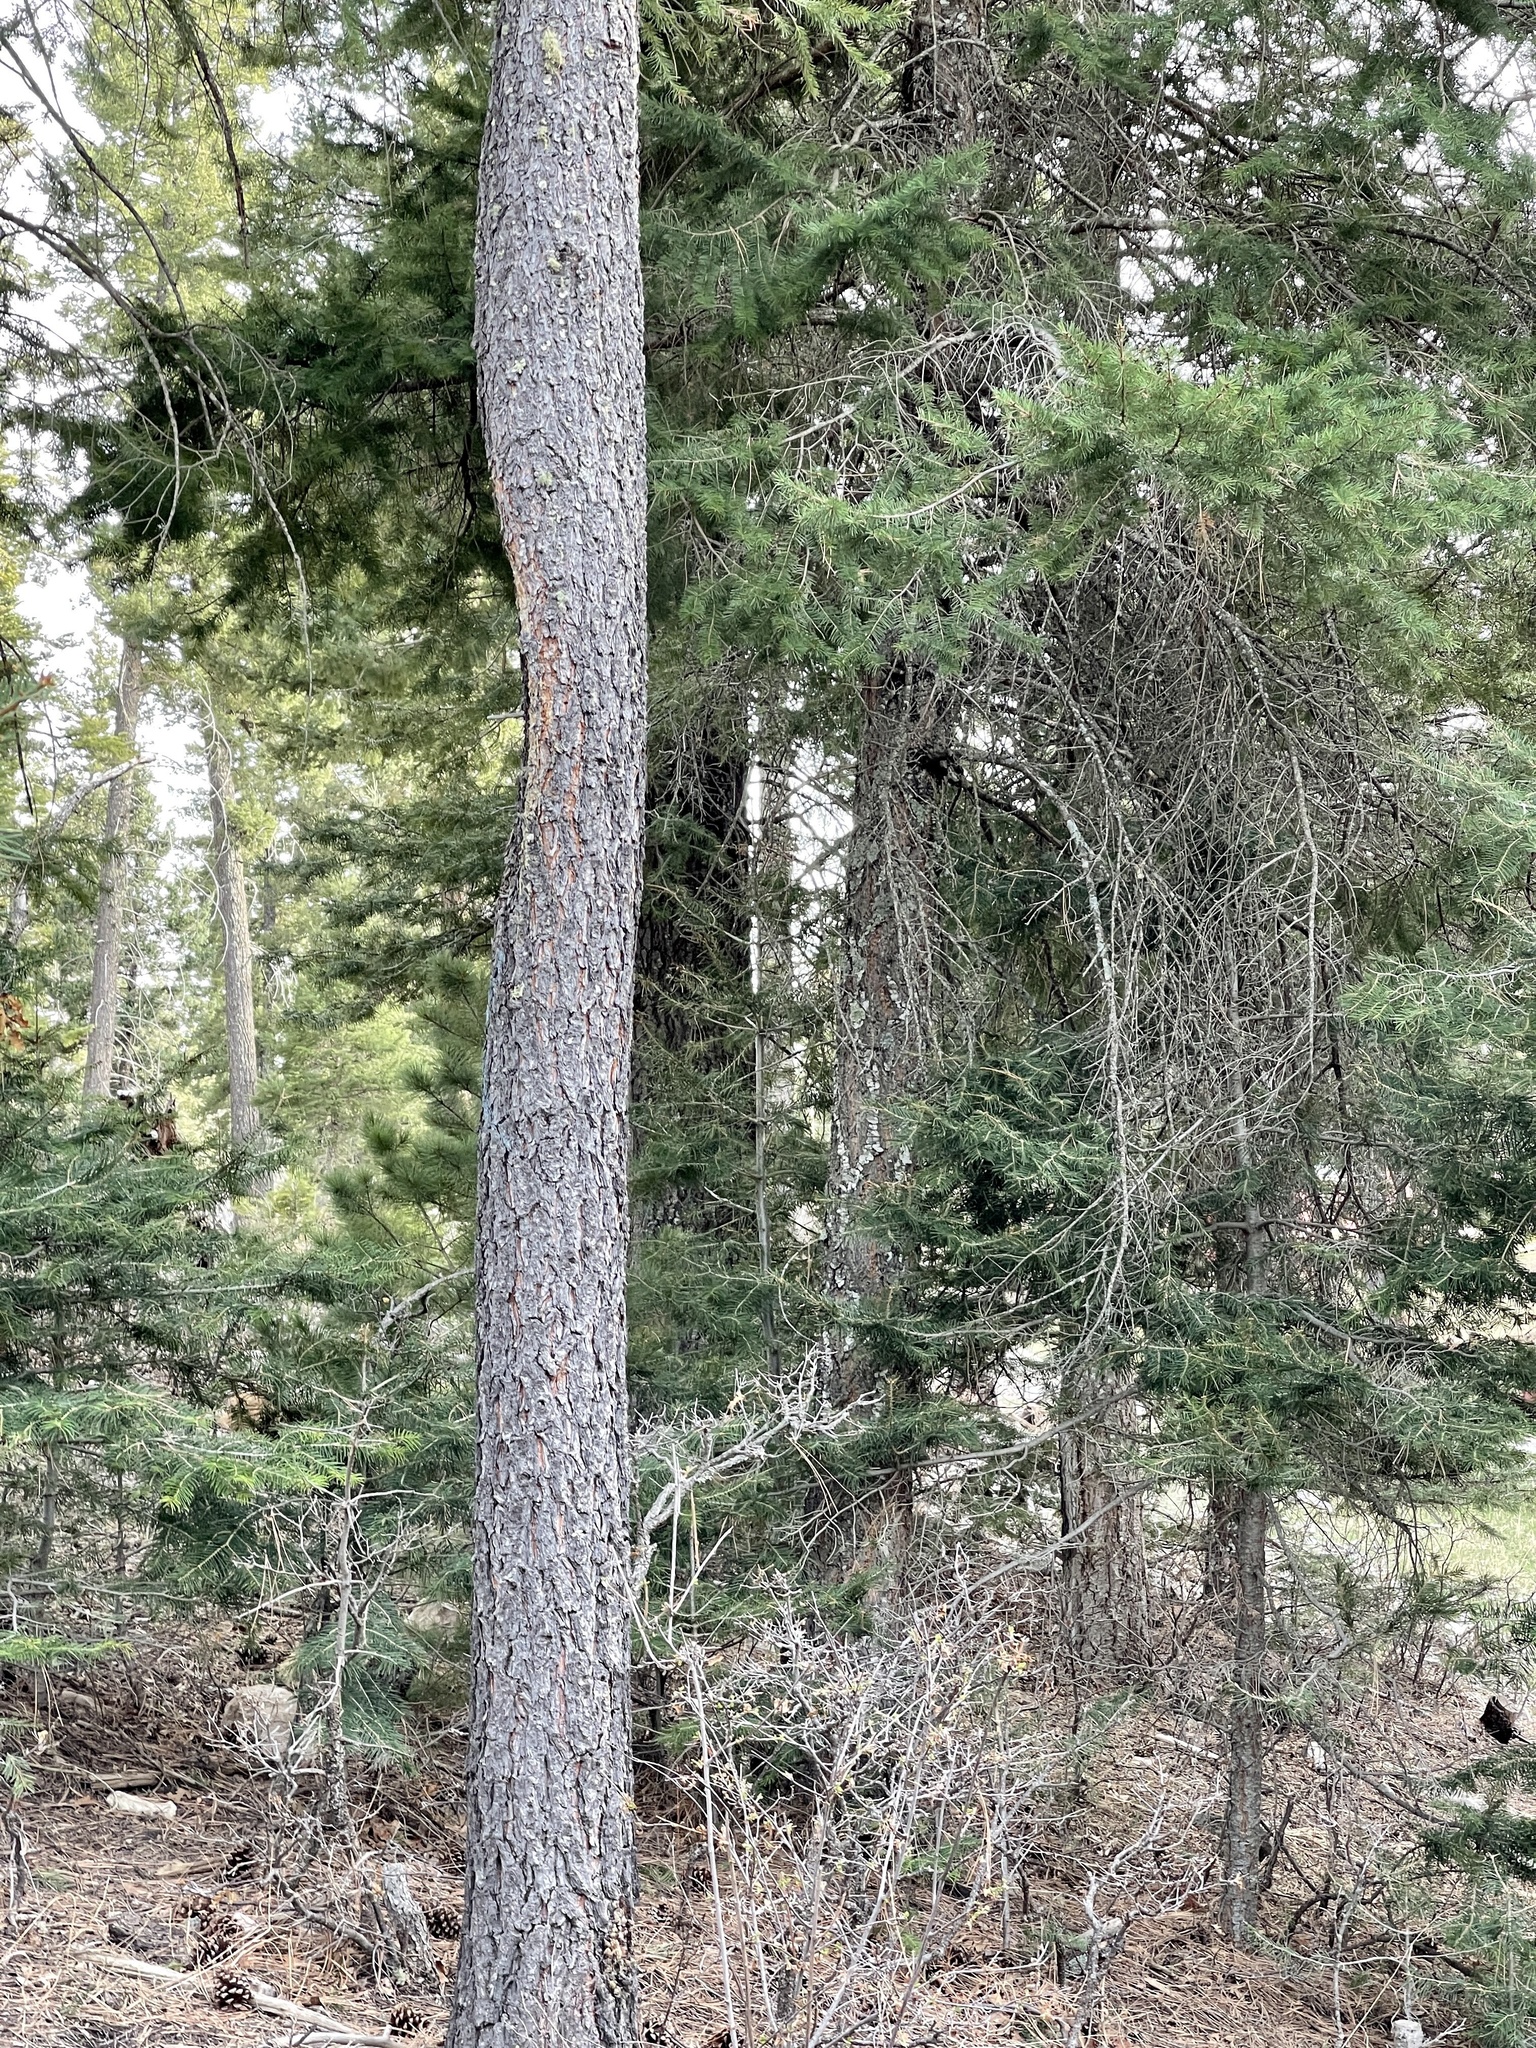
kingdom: Plantae
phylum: Tracheophyta
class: Pinopsida
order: Pinales
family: Pinaceae
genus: Pinus
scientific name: Pinus ponderosa
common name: Western yellow-pine
